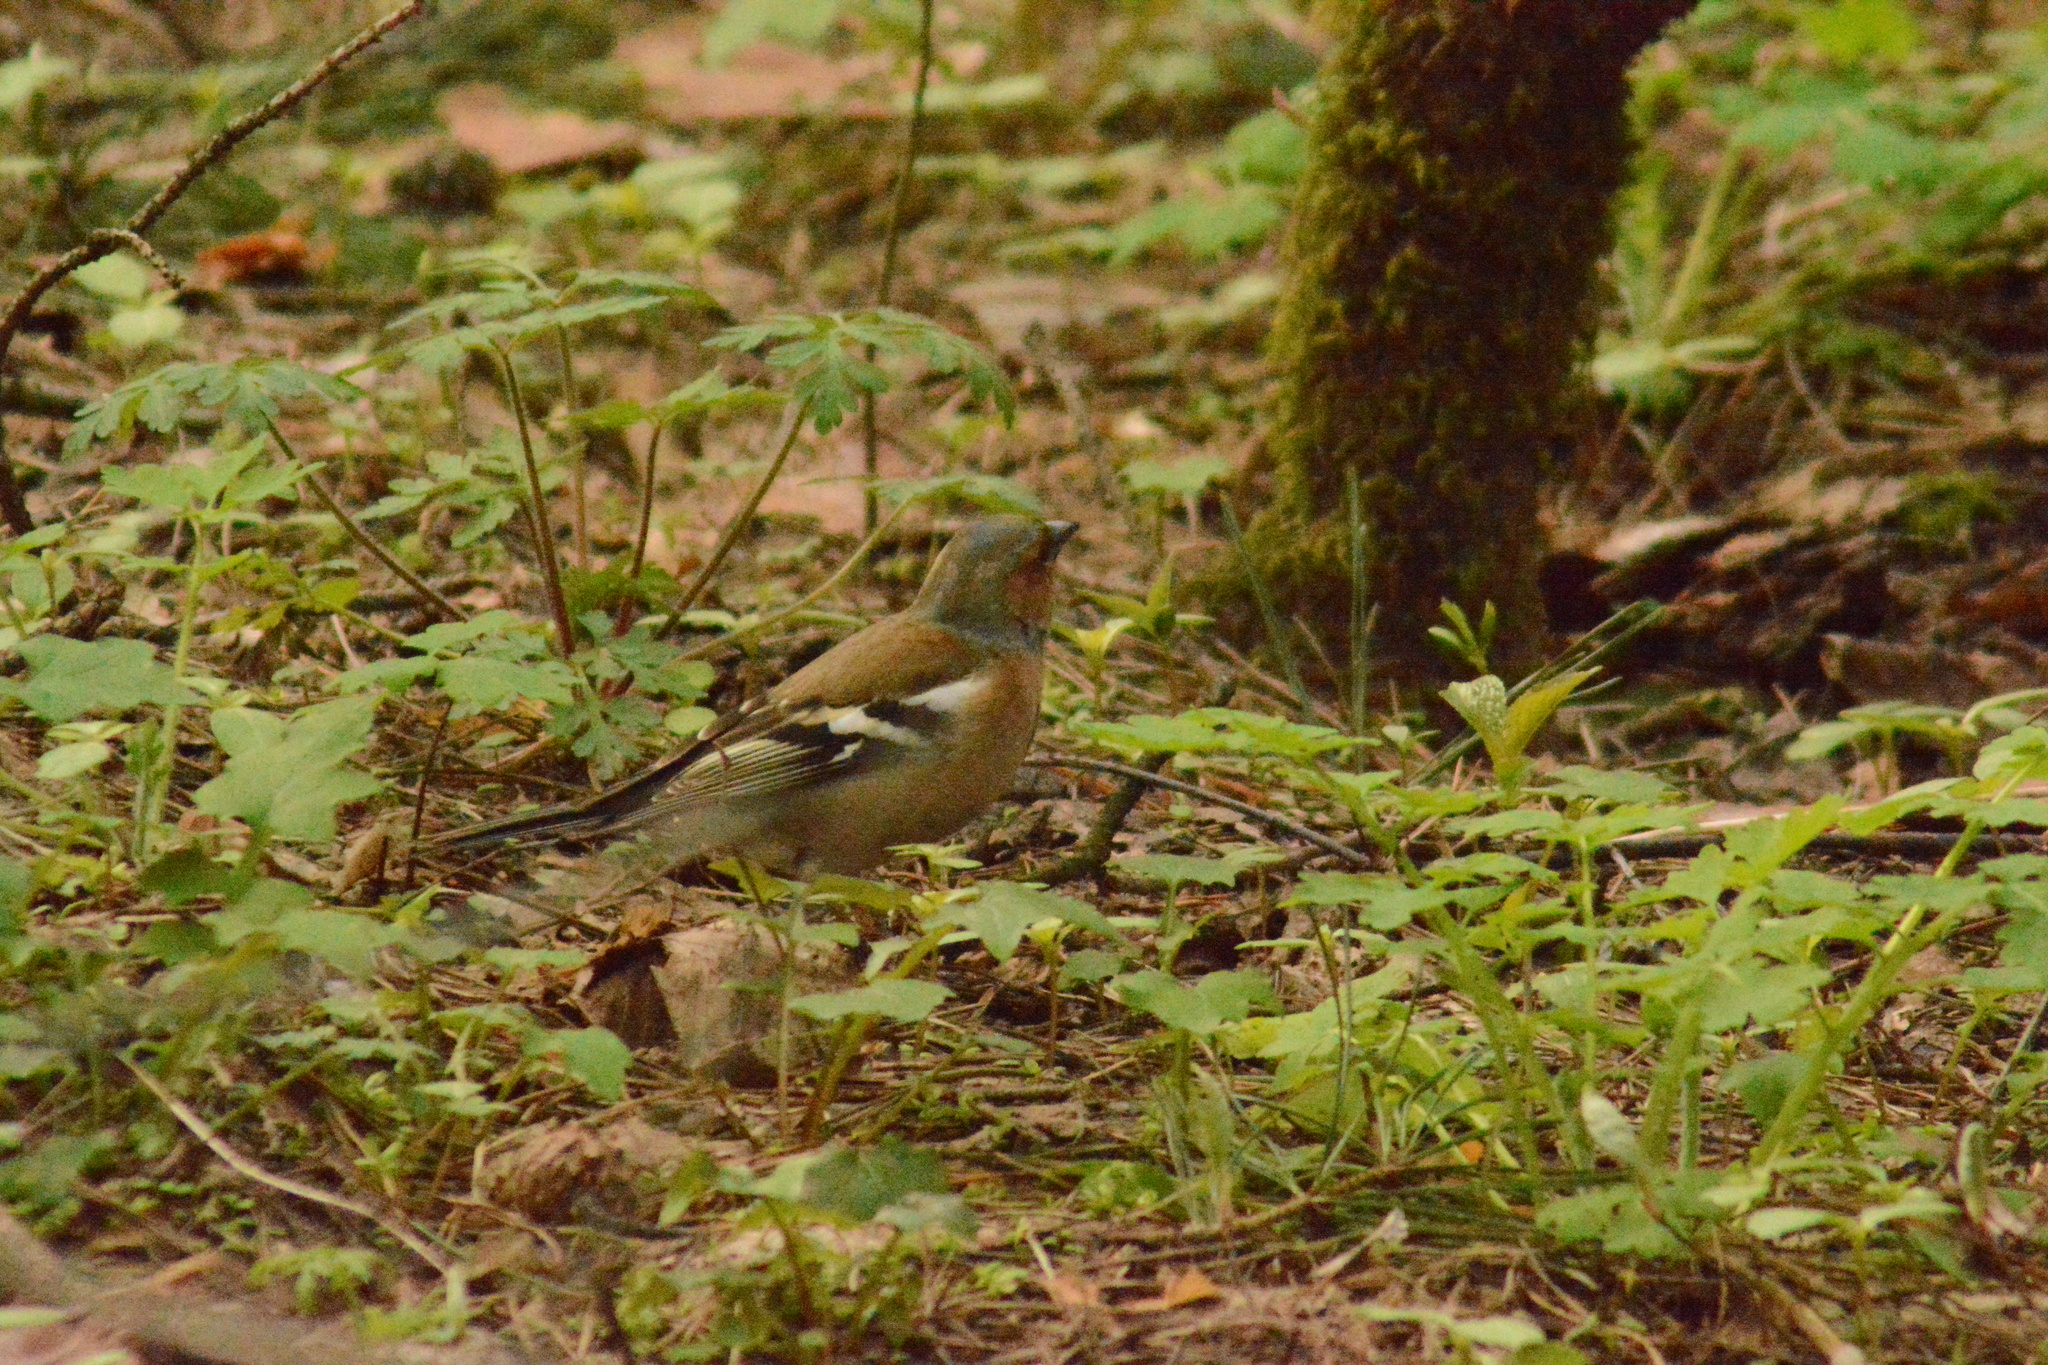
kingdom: Animalia
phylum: Chordata
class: Aves
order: Passeriformes
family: Fringillidae
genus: Fringilla
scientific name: Fringilla coelebs
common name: Common chaffinch
